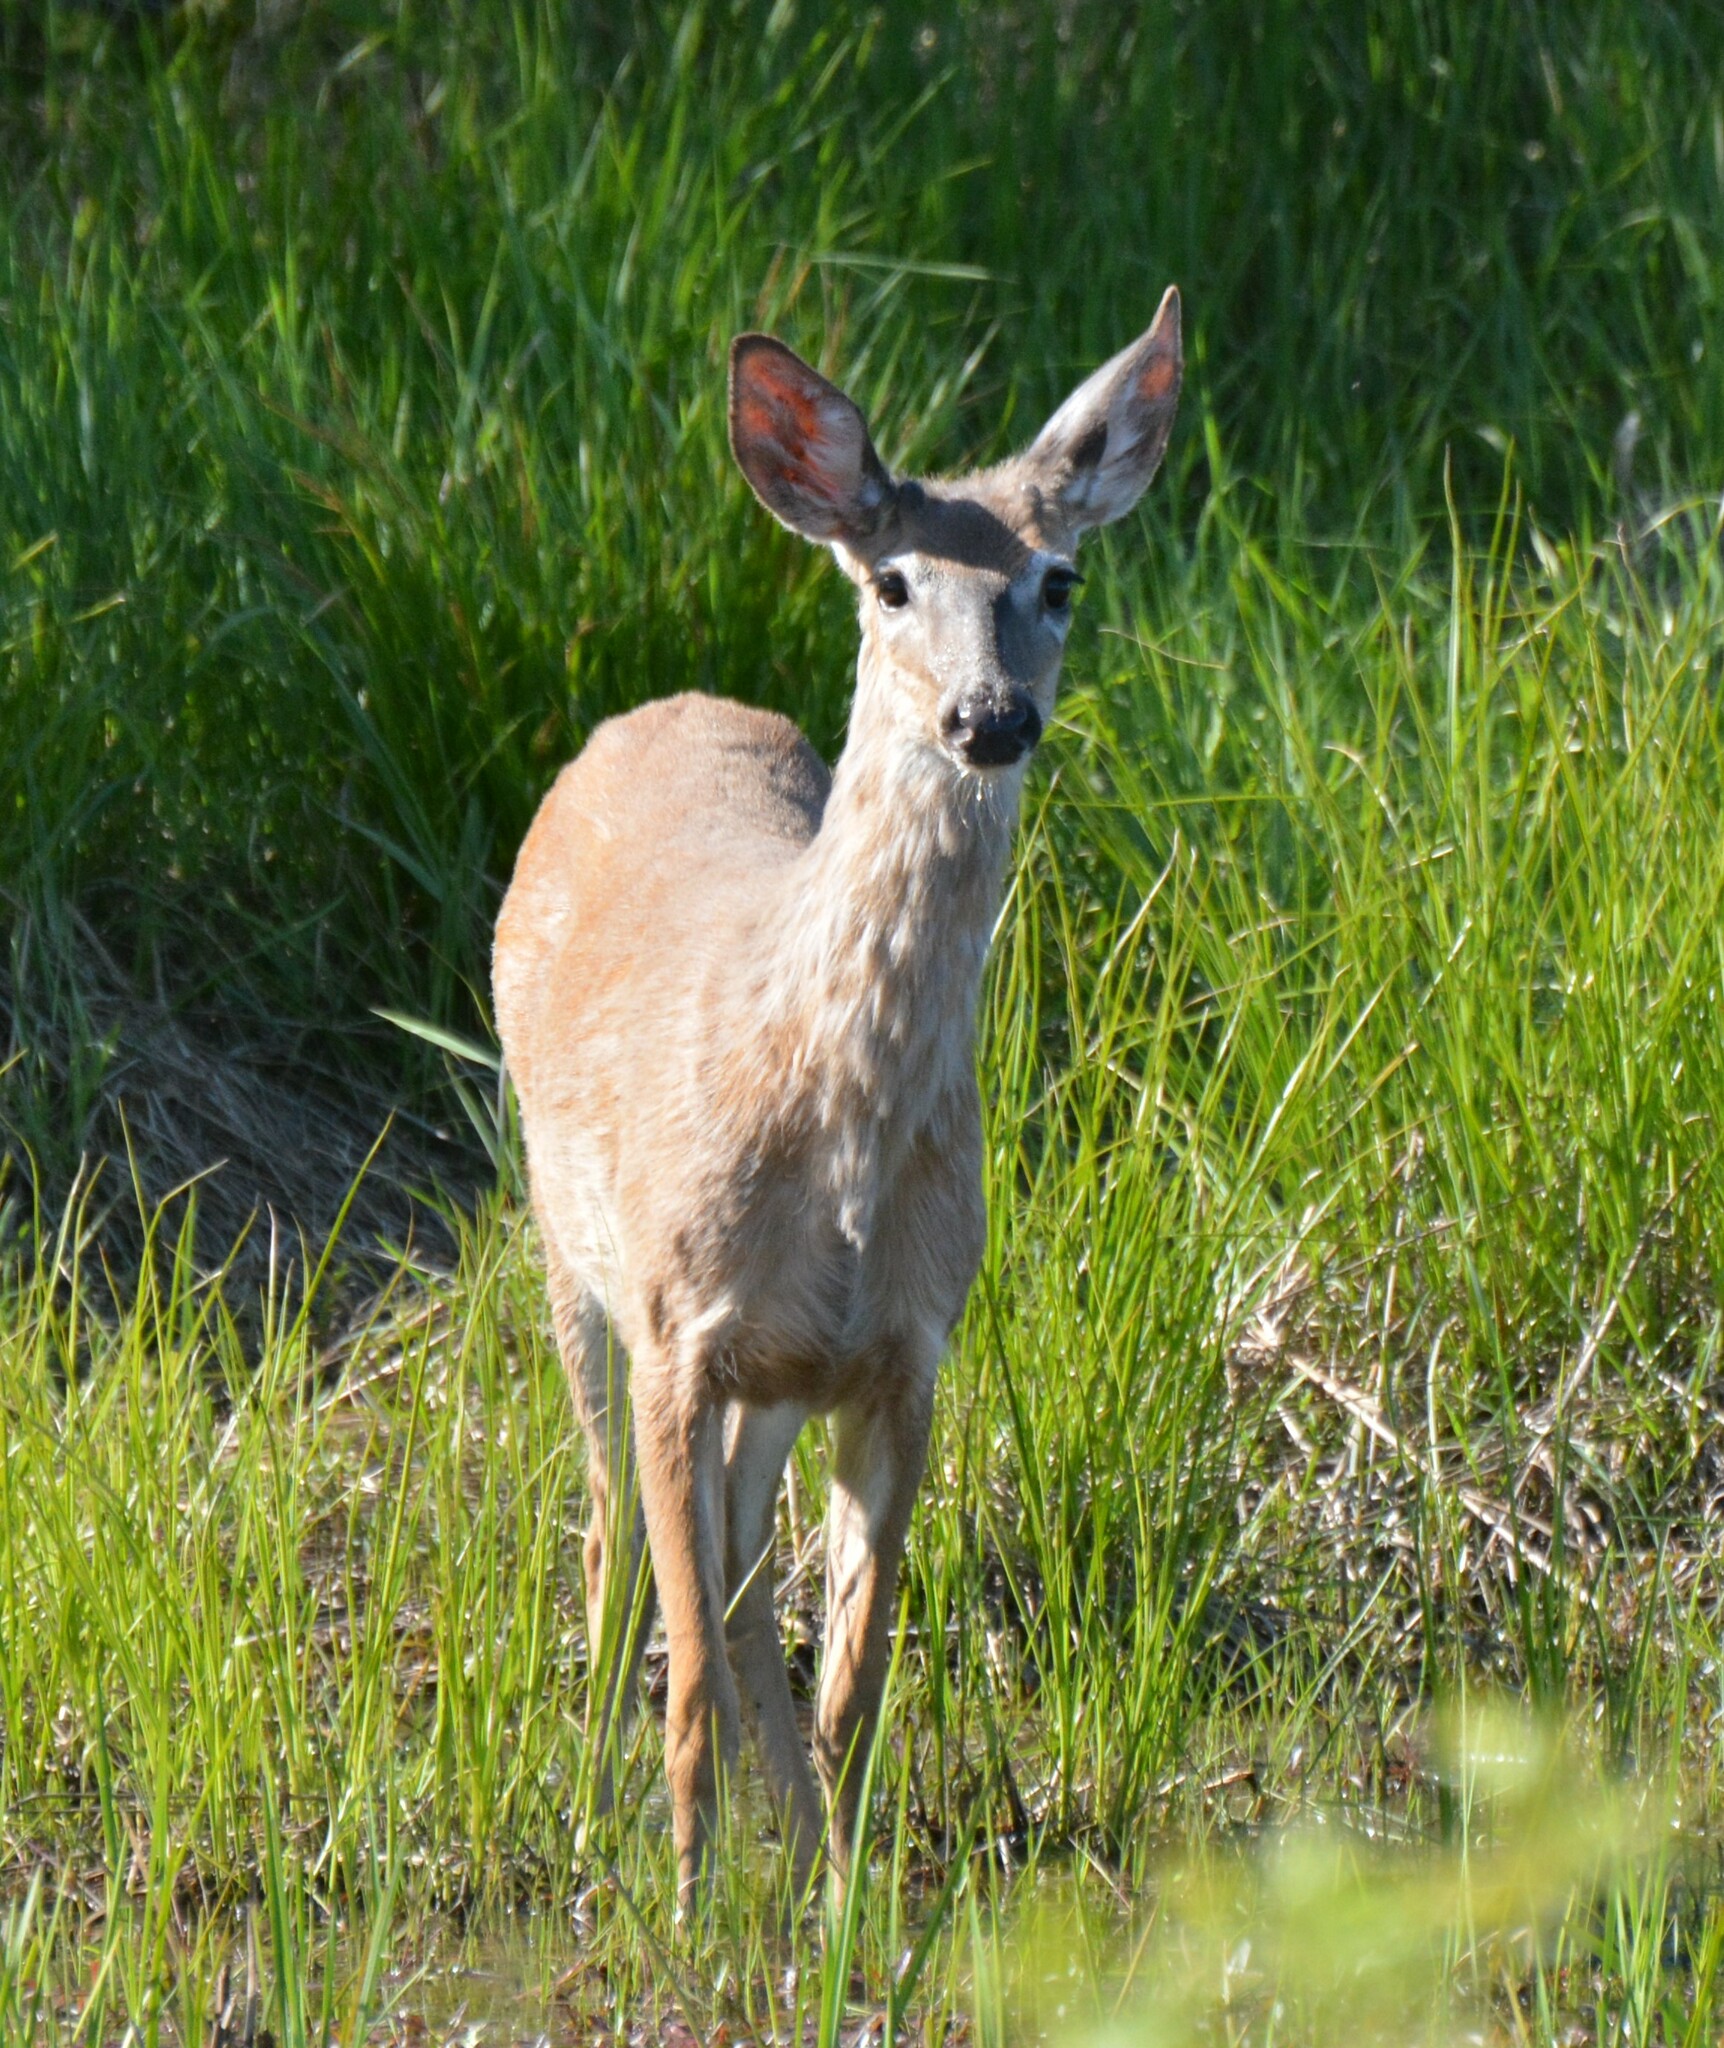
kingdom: Animalia
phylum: Chordata
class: Mammalia
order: Artiodactyla
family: Cervidae
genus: Odocoileus
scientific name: Odocoileus virginianus
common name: White-tailed deer
